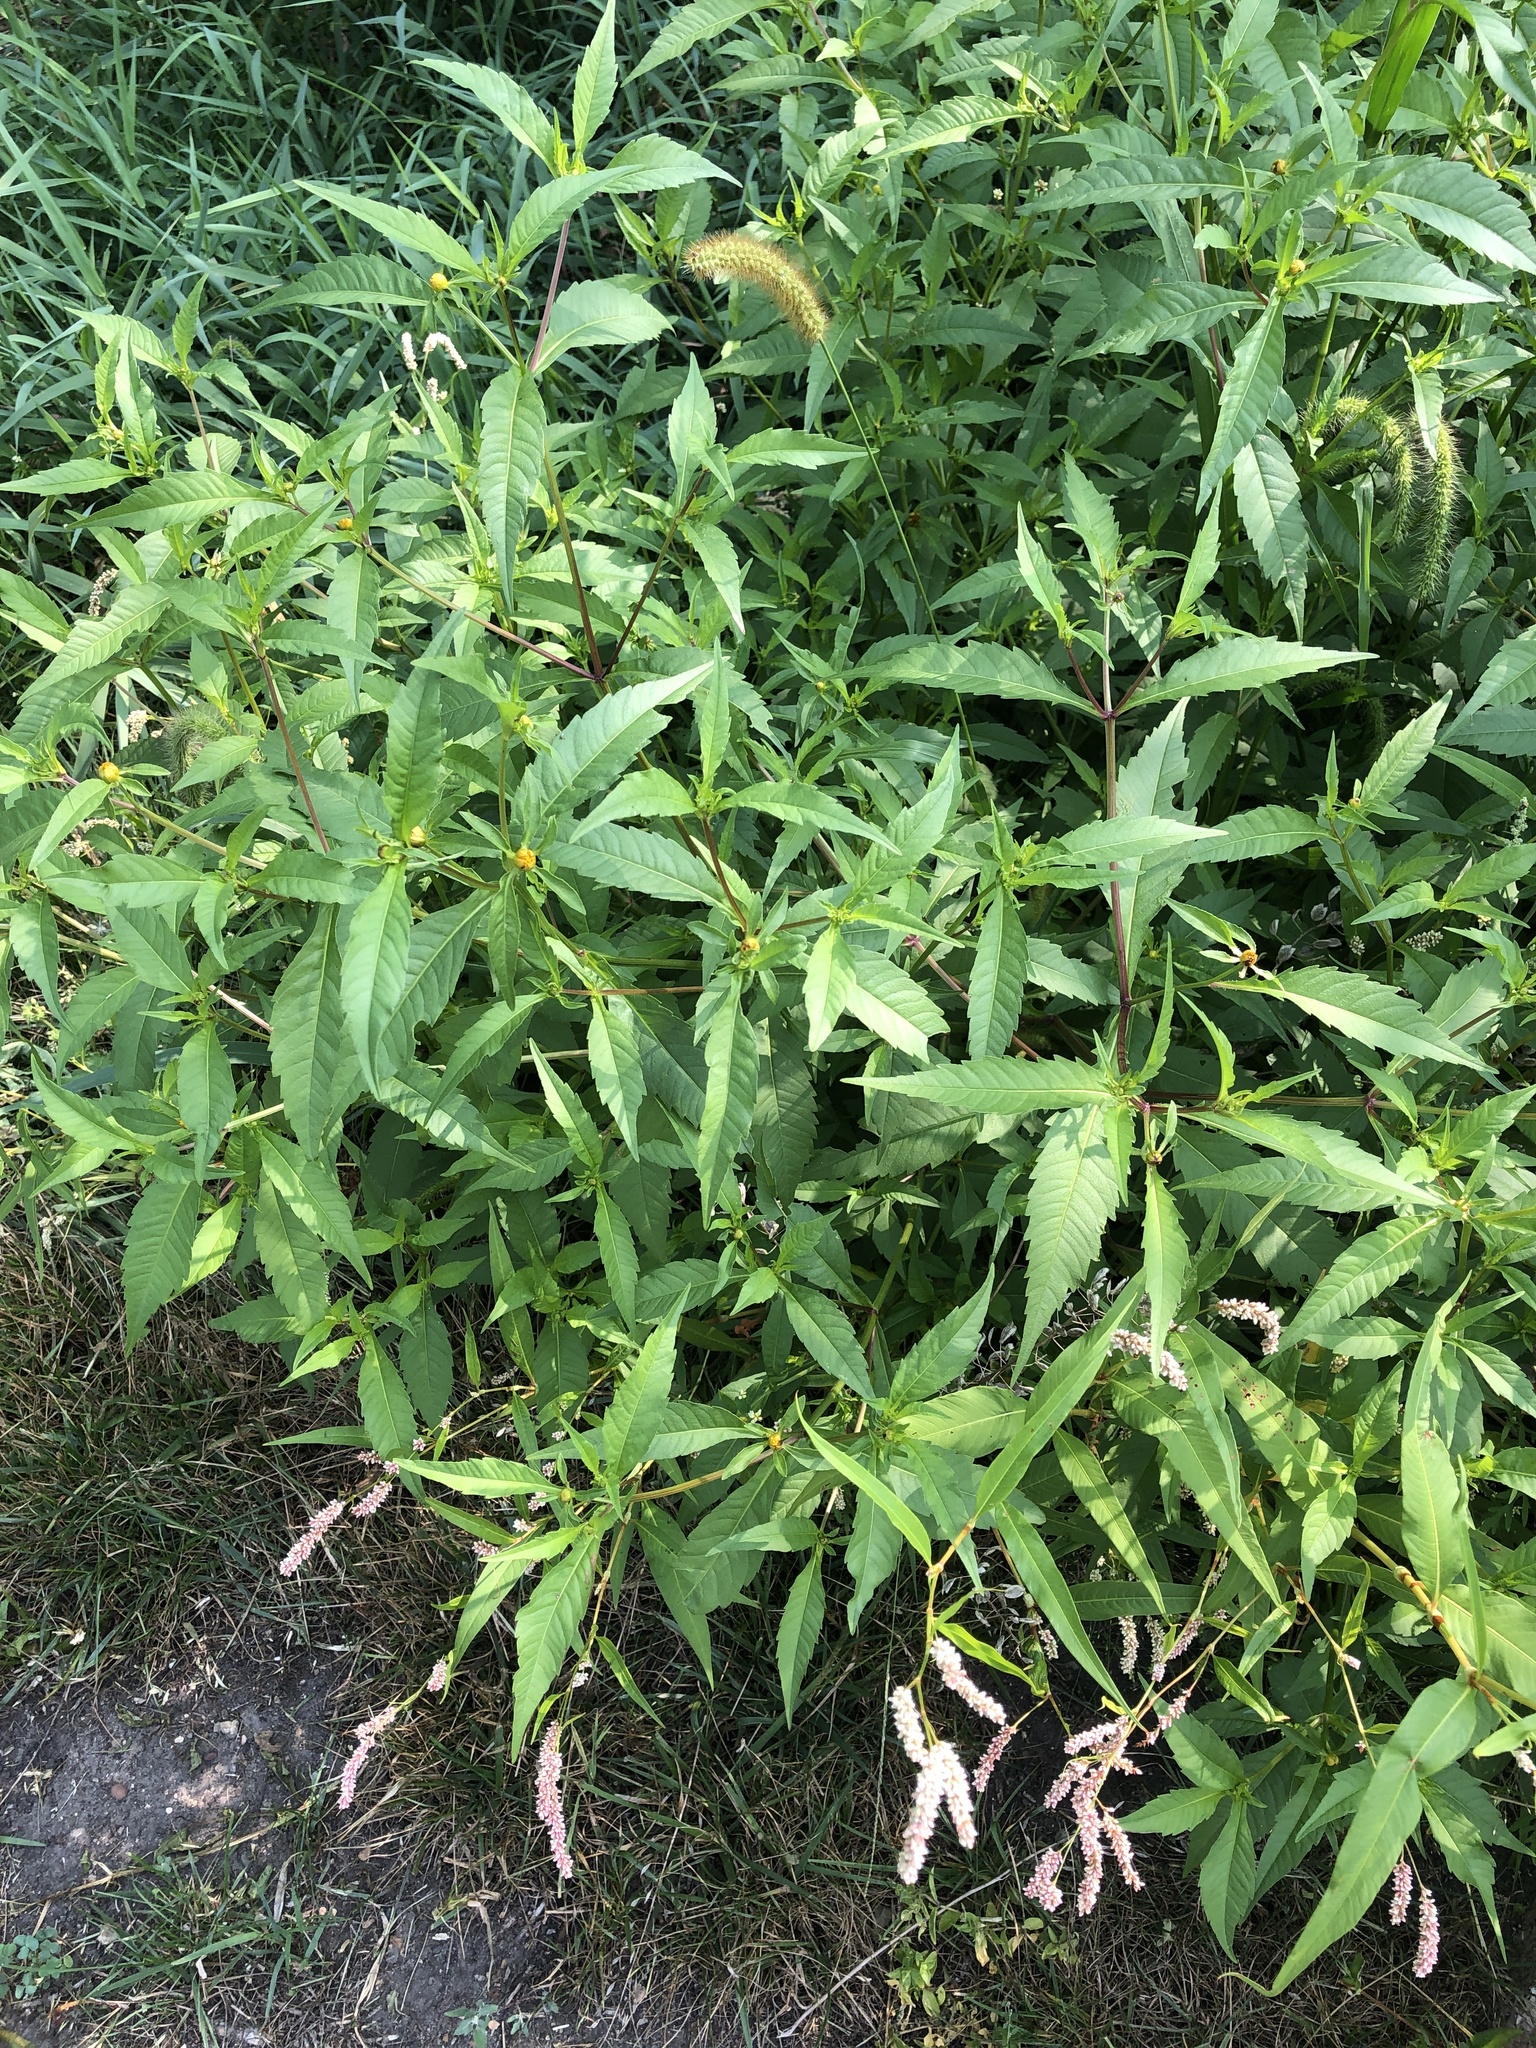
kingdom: Plantae
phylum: Tracheophyta
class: Magnoliopsida
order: Asterales
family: Asteraceae
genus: Bidens
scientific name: Bidens connata
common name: London bur-marigold
